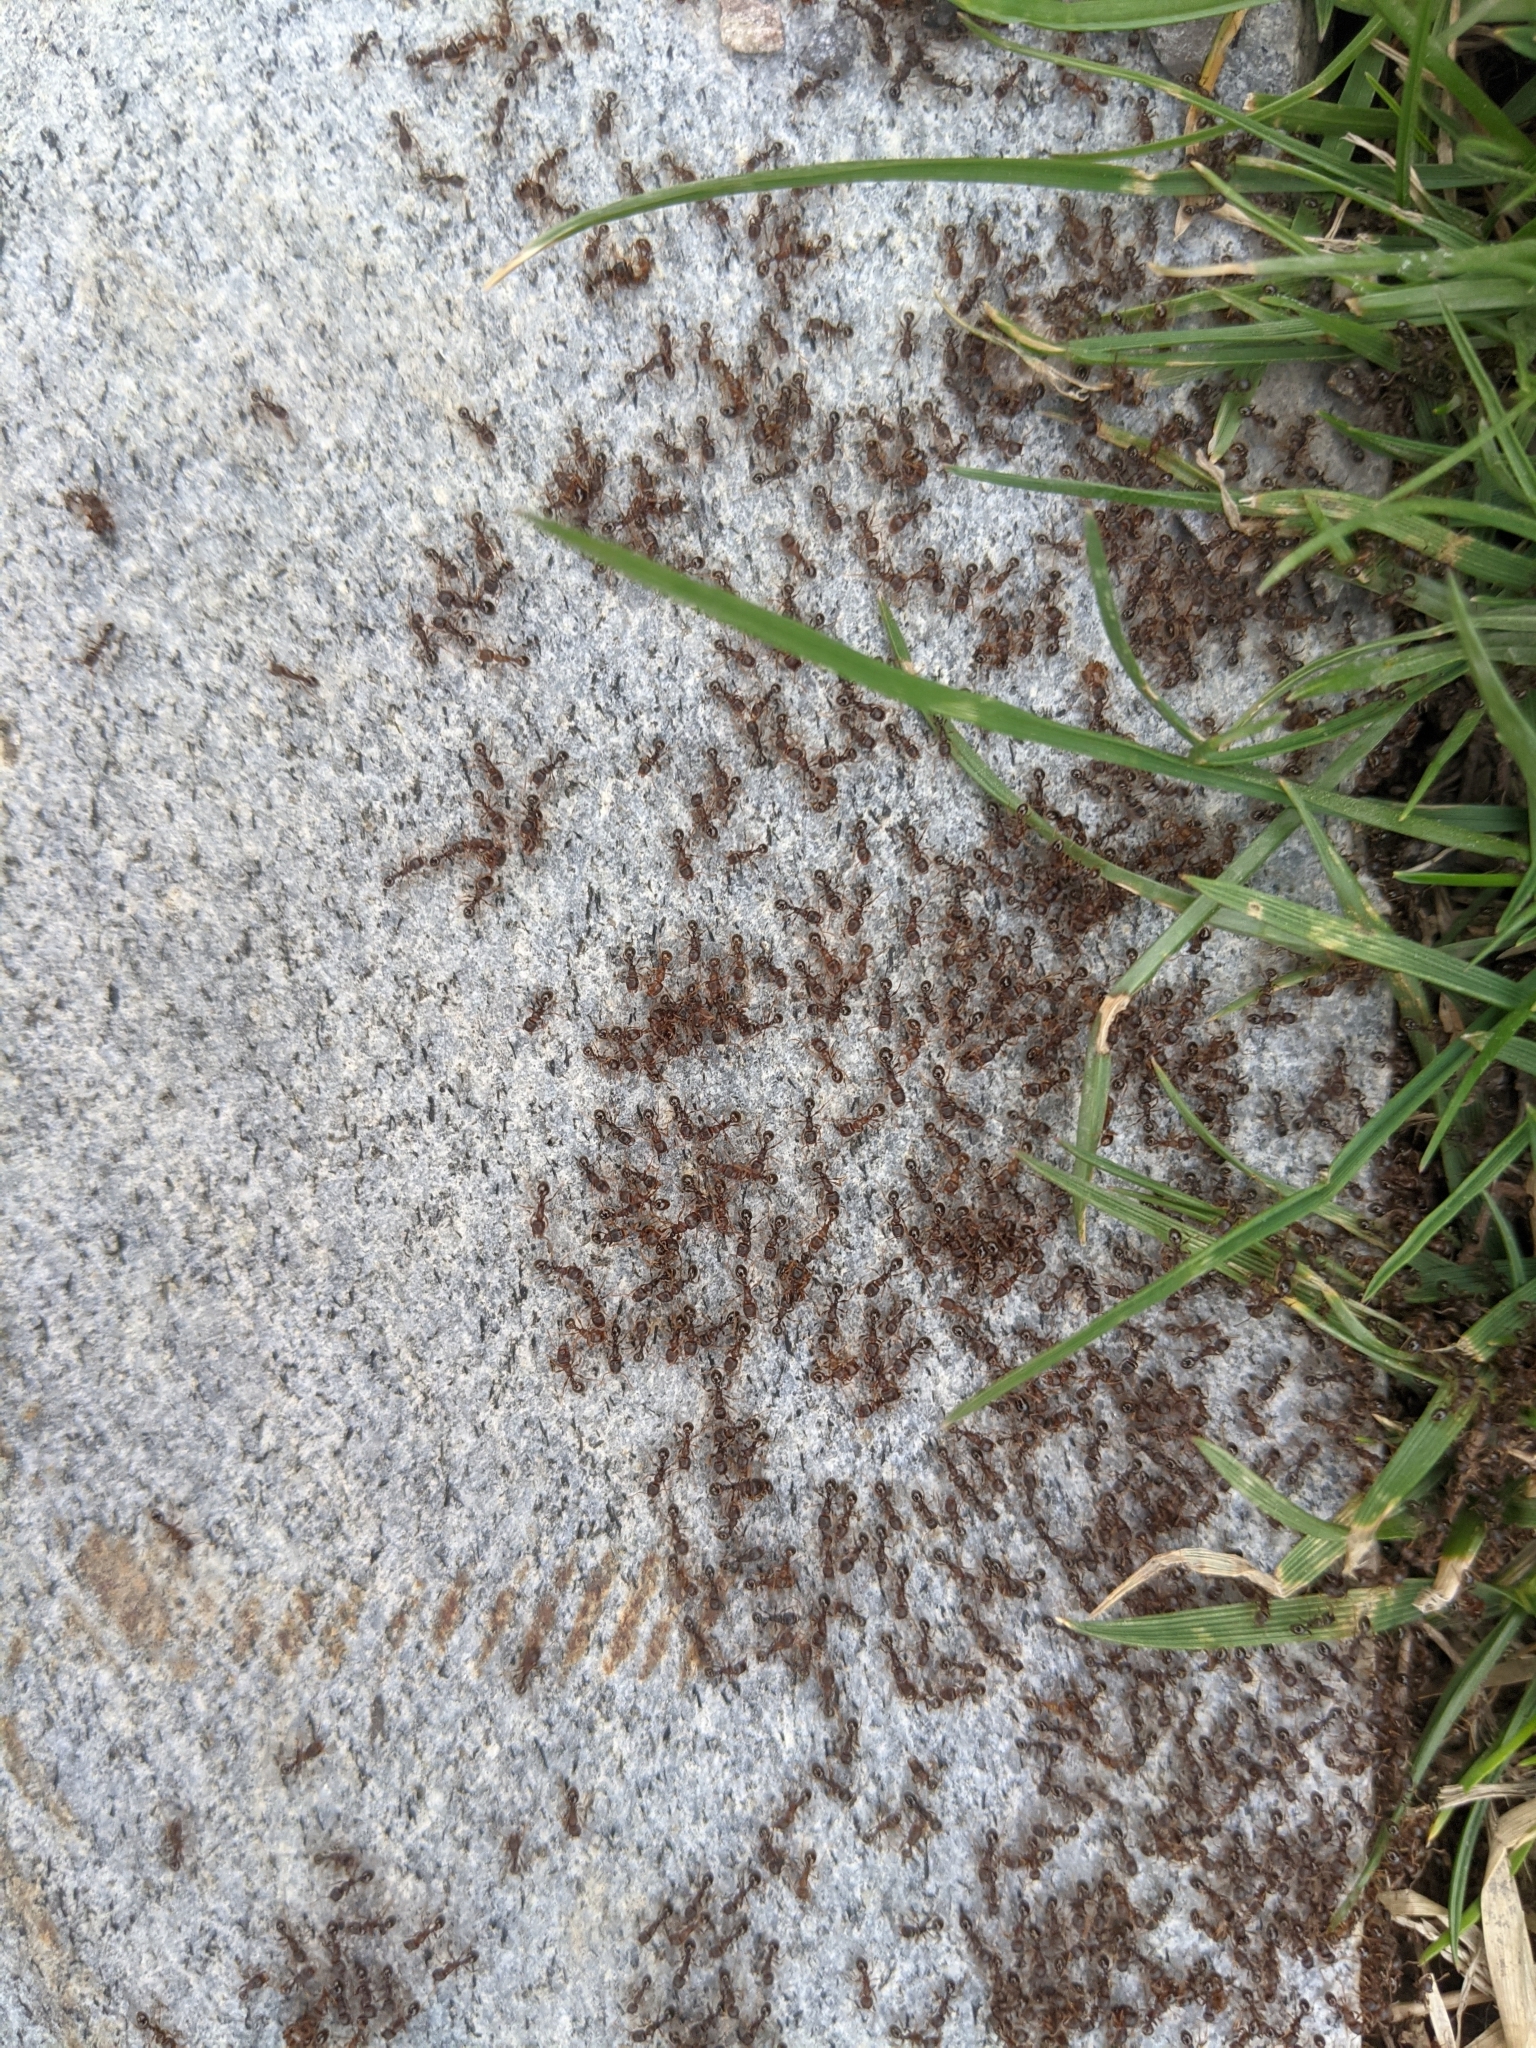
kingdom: Animalia
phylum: Arthropoda
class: Insecta
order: Hymenoptera
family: Formicidae
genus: Tetramorium
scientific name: Tetramorium immigrans
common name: Pavement ant
